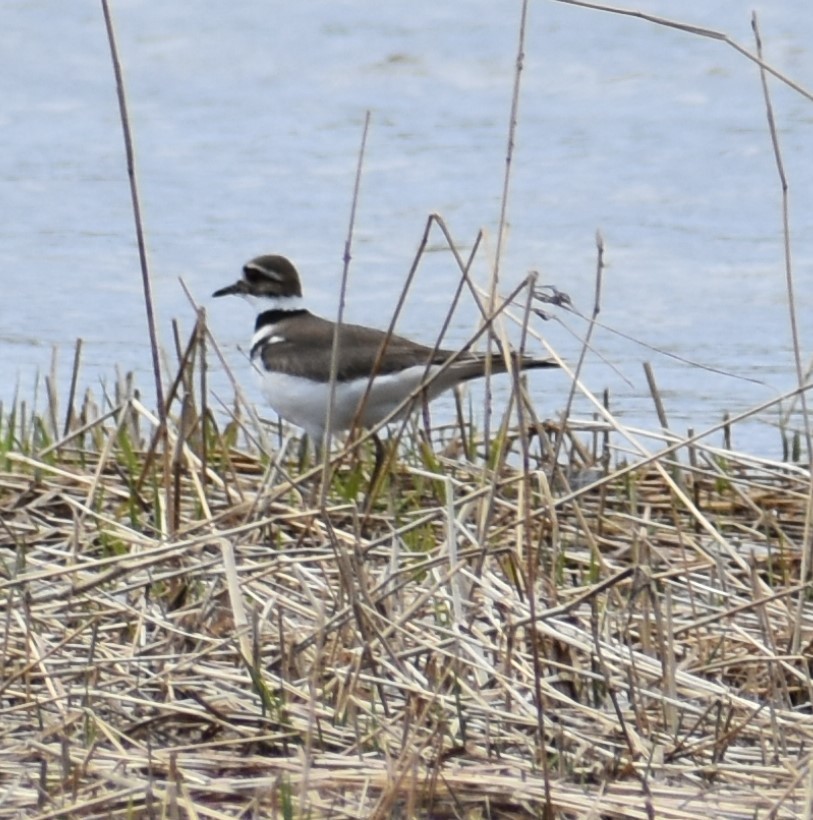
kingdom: Animalia
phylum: Chordata
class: Aves
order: Charadriiformes
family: Charadriidae
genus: Charadrius
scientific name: Charadrius vociferus
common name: Killdeer
